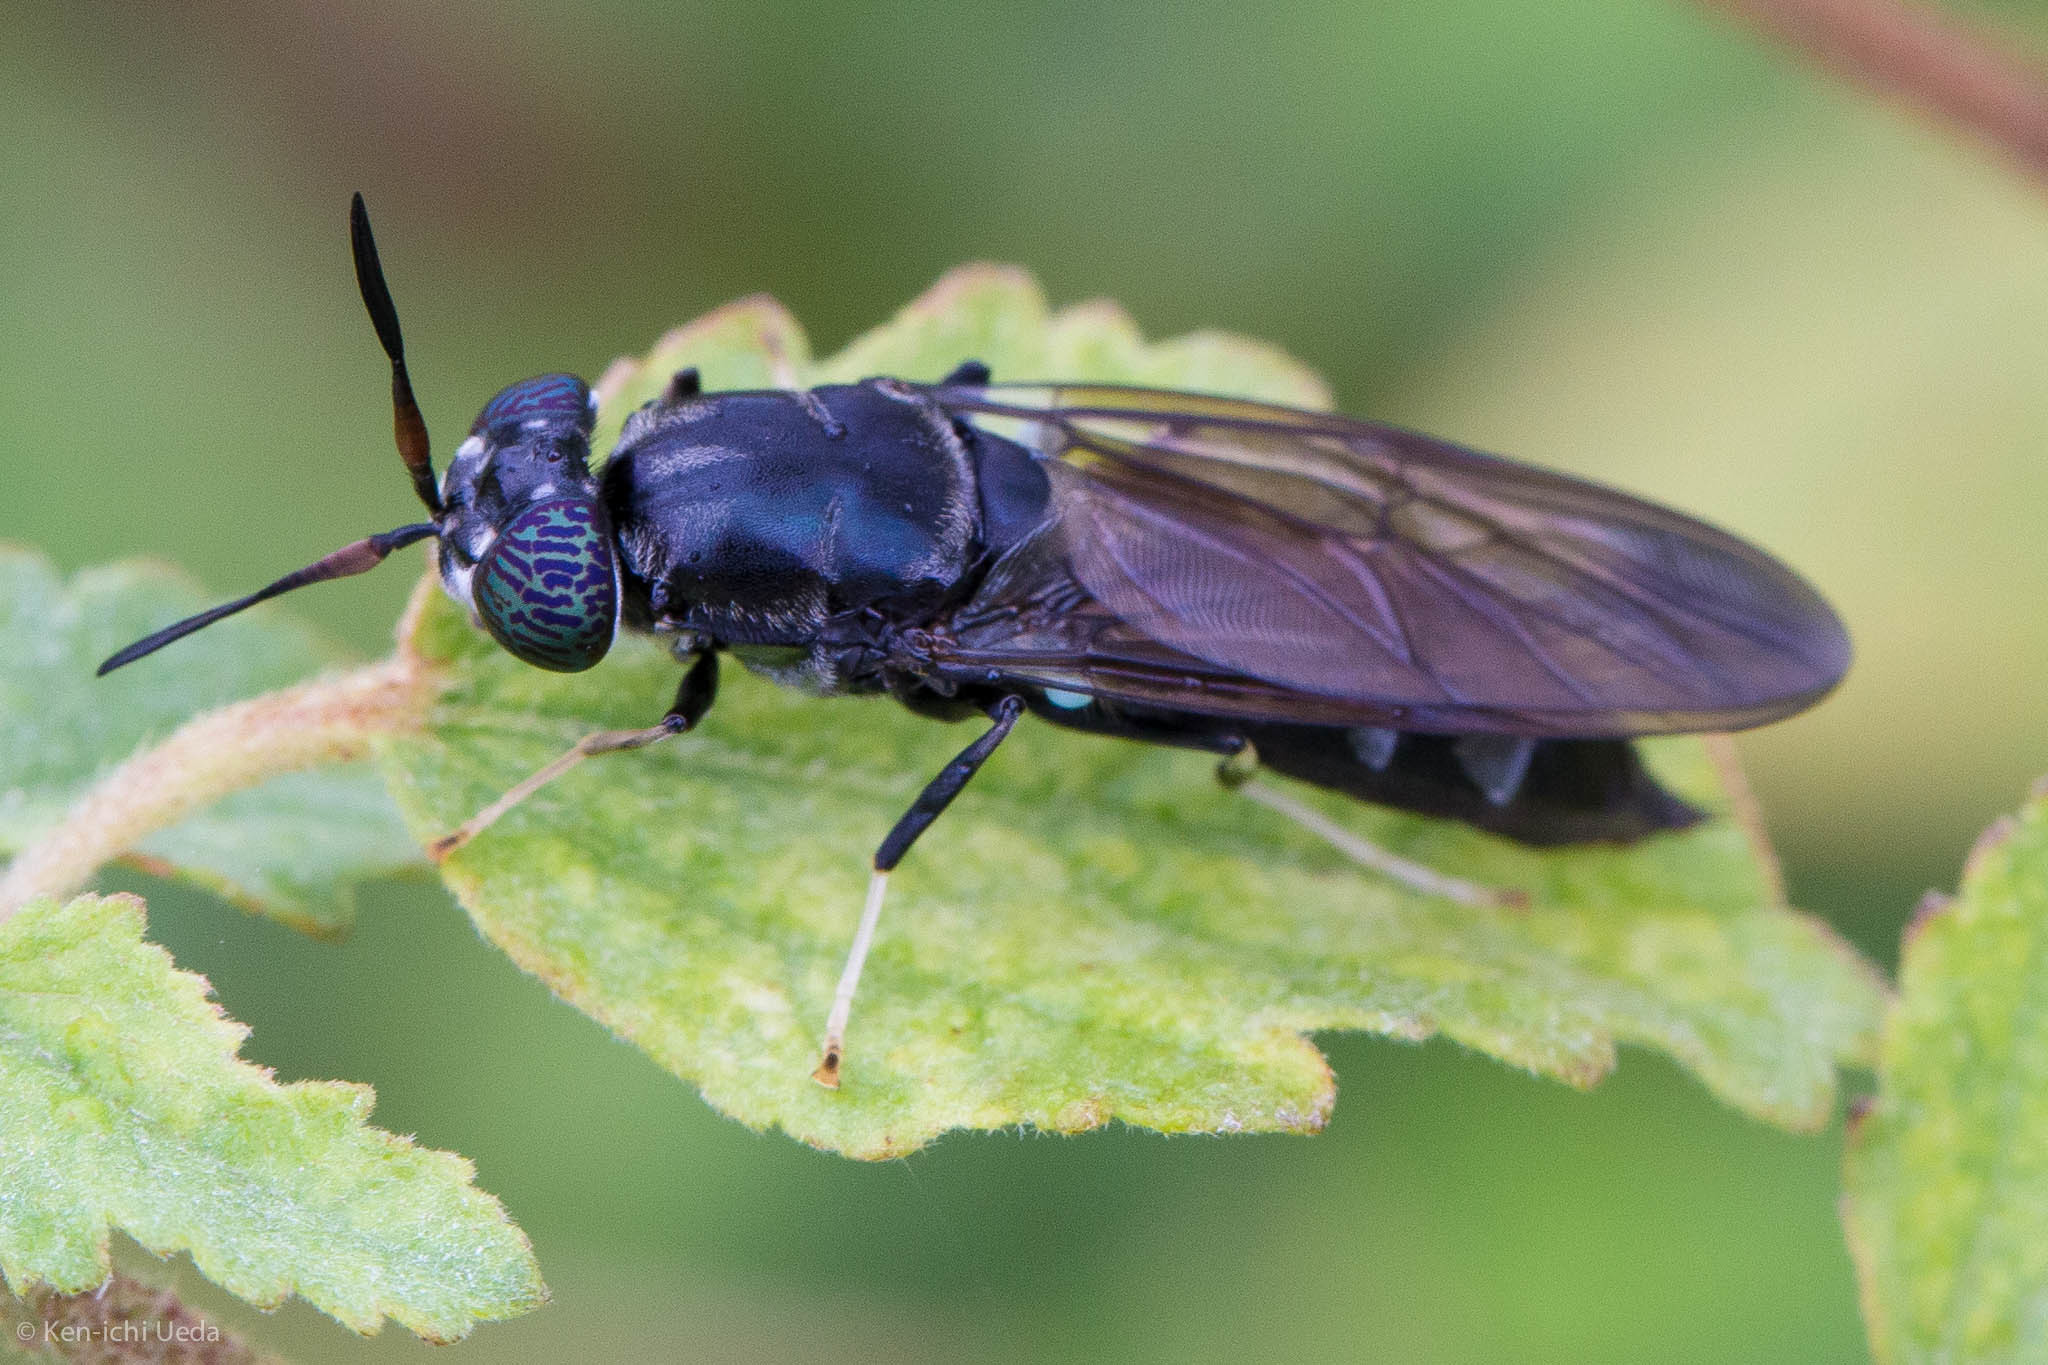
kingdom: Animalia
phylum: Arthropoda
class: Insecta
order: Diptera
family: Stratiomyidae
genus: Hermetia
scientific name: Hermetia illucens
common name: Black soldier fly
